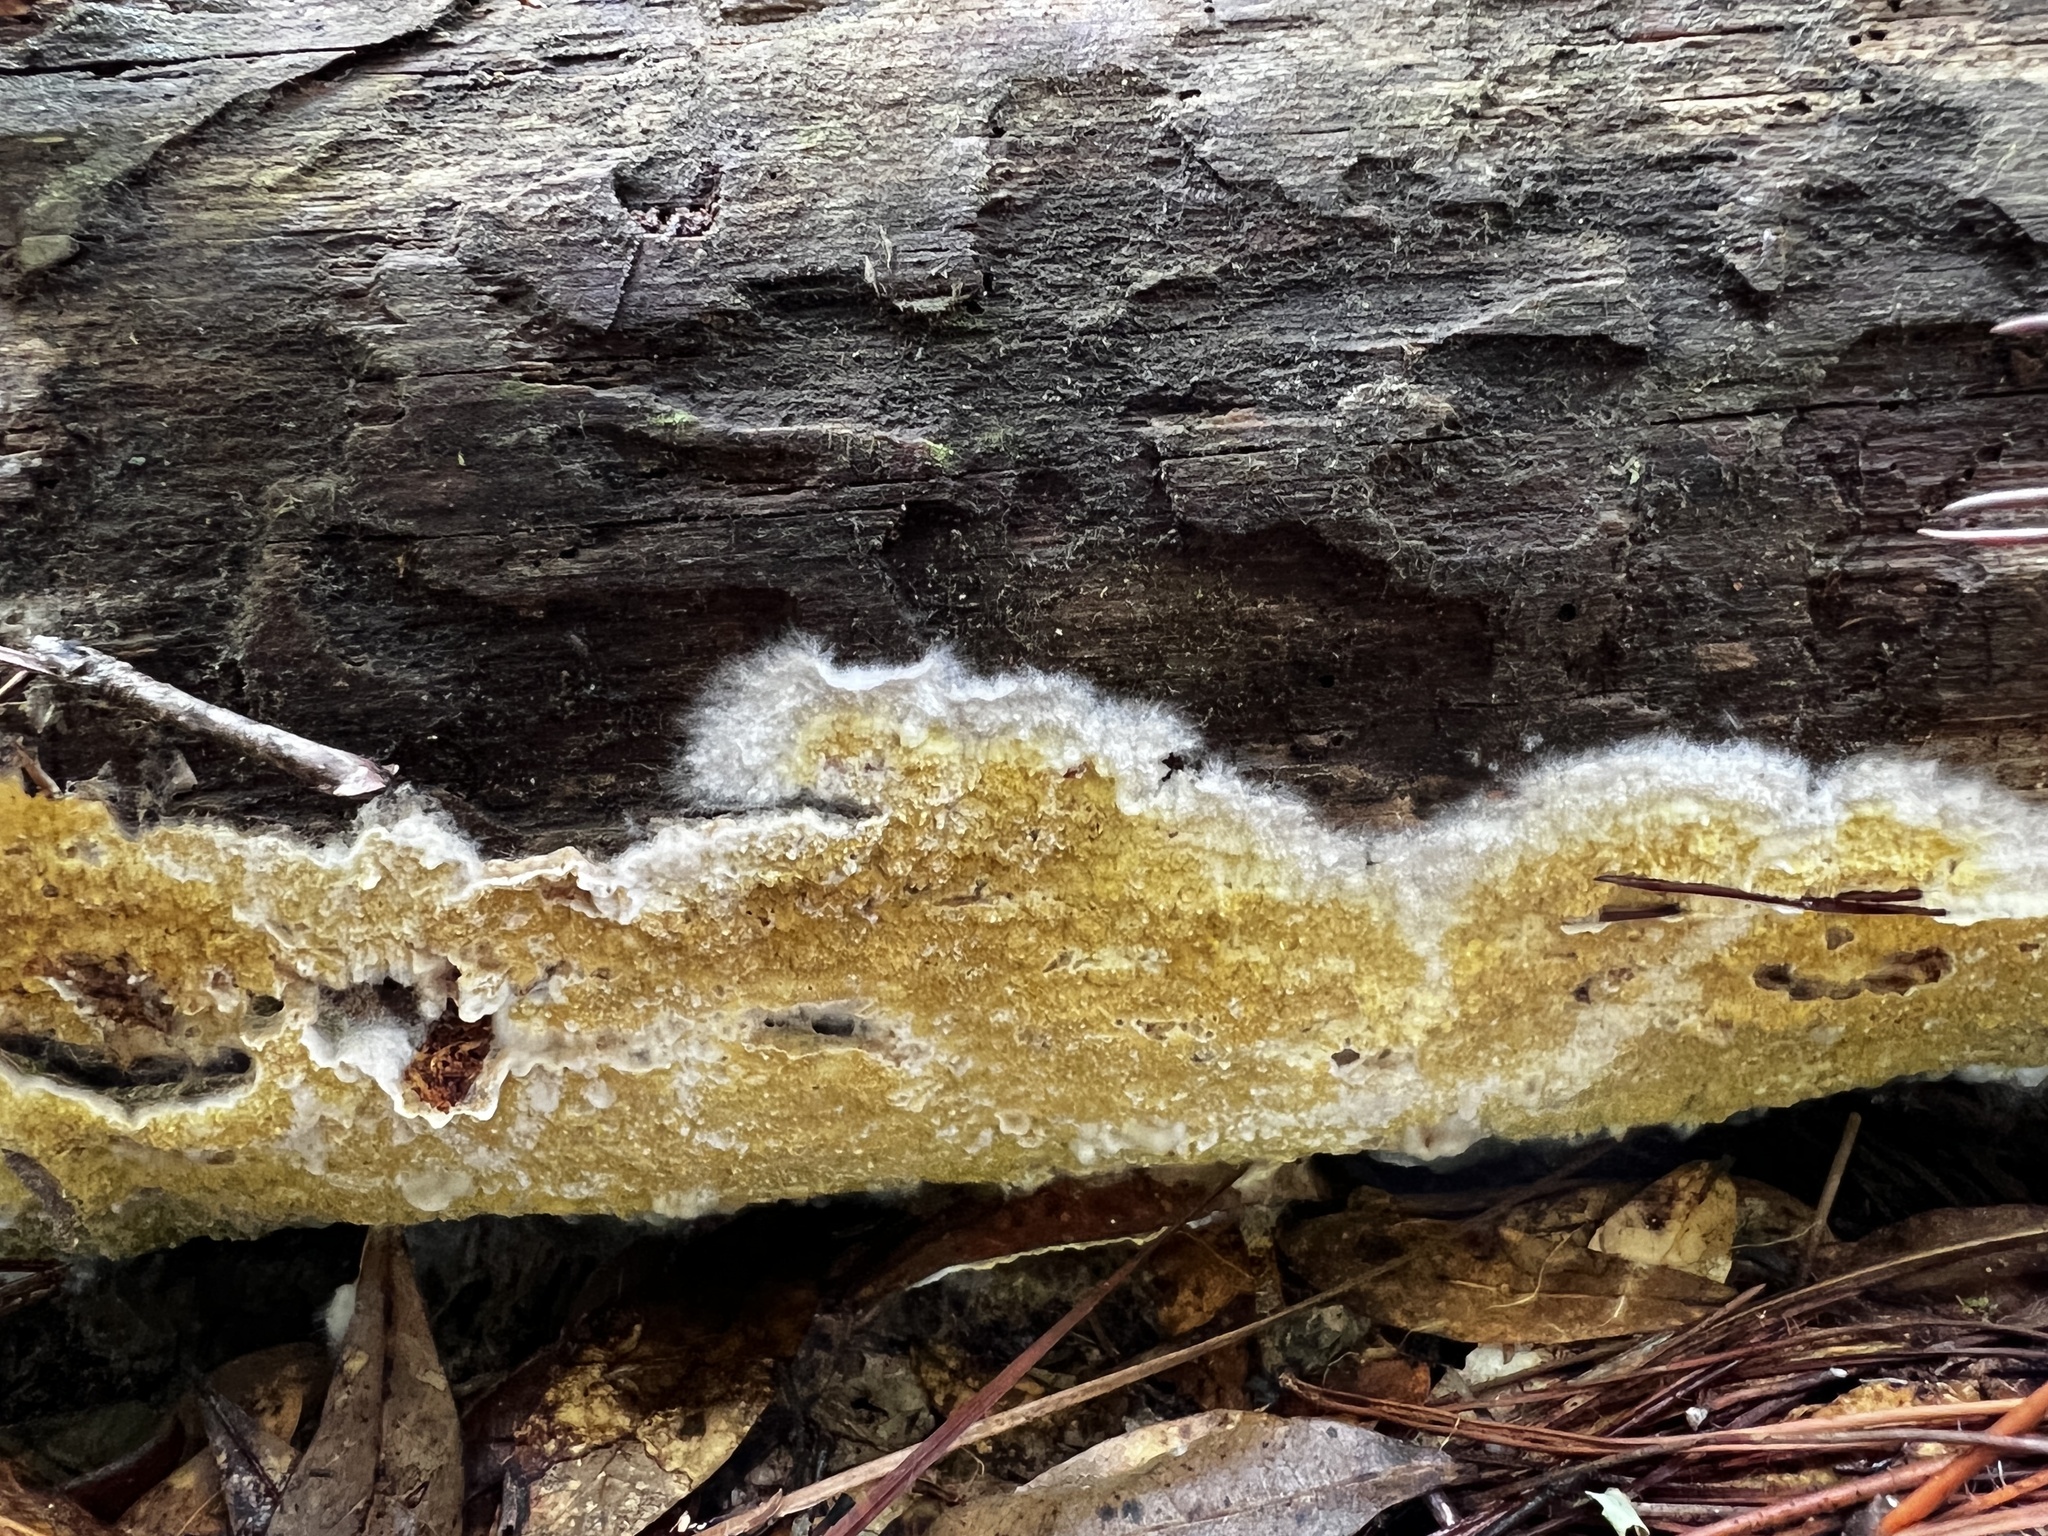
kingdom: Fungi
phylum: Basidiomycota
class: Agaricomycetes
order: Boletales
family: Coniophoraceae
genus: Penttilamyces
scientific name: Penttilamyces olivascens
